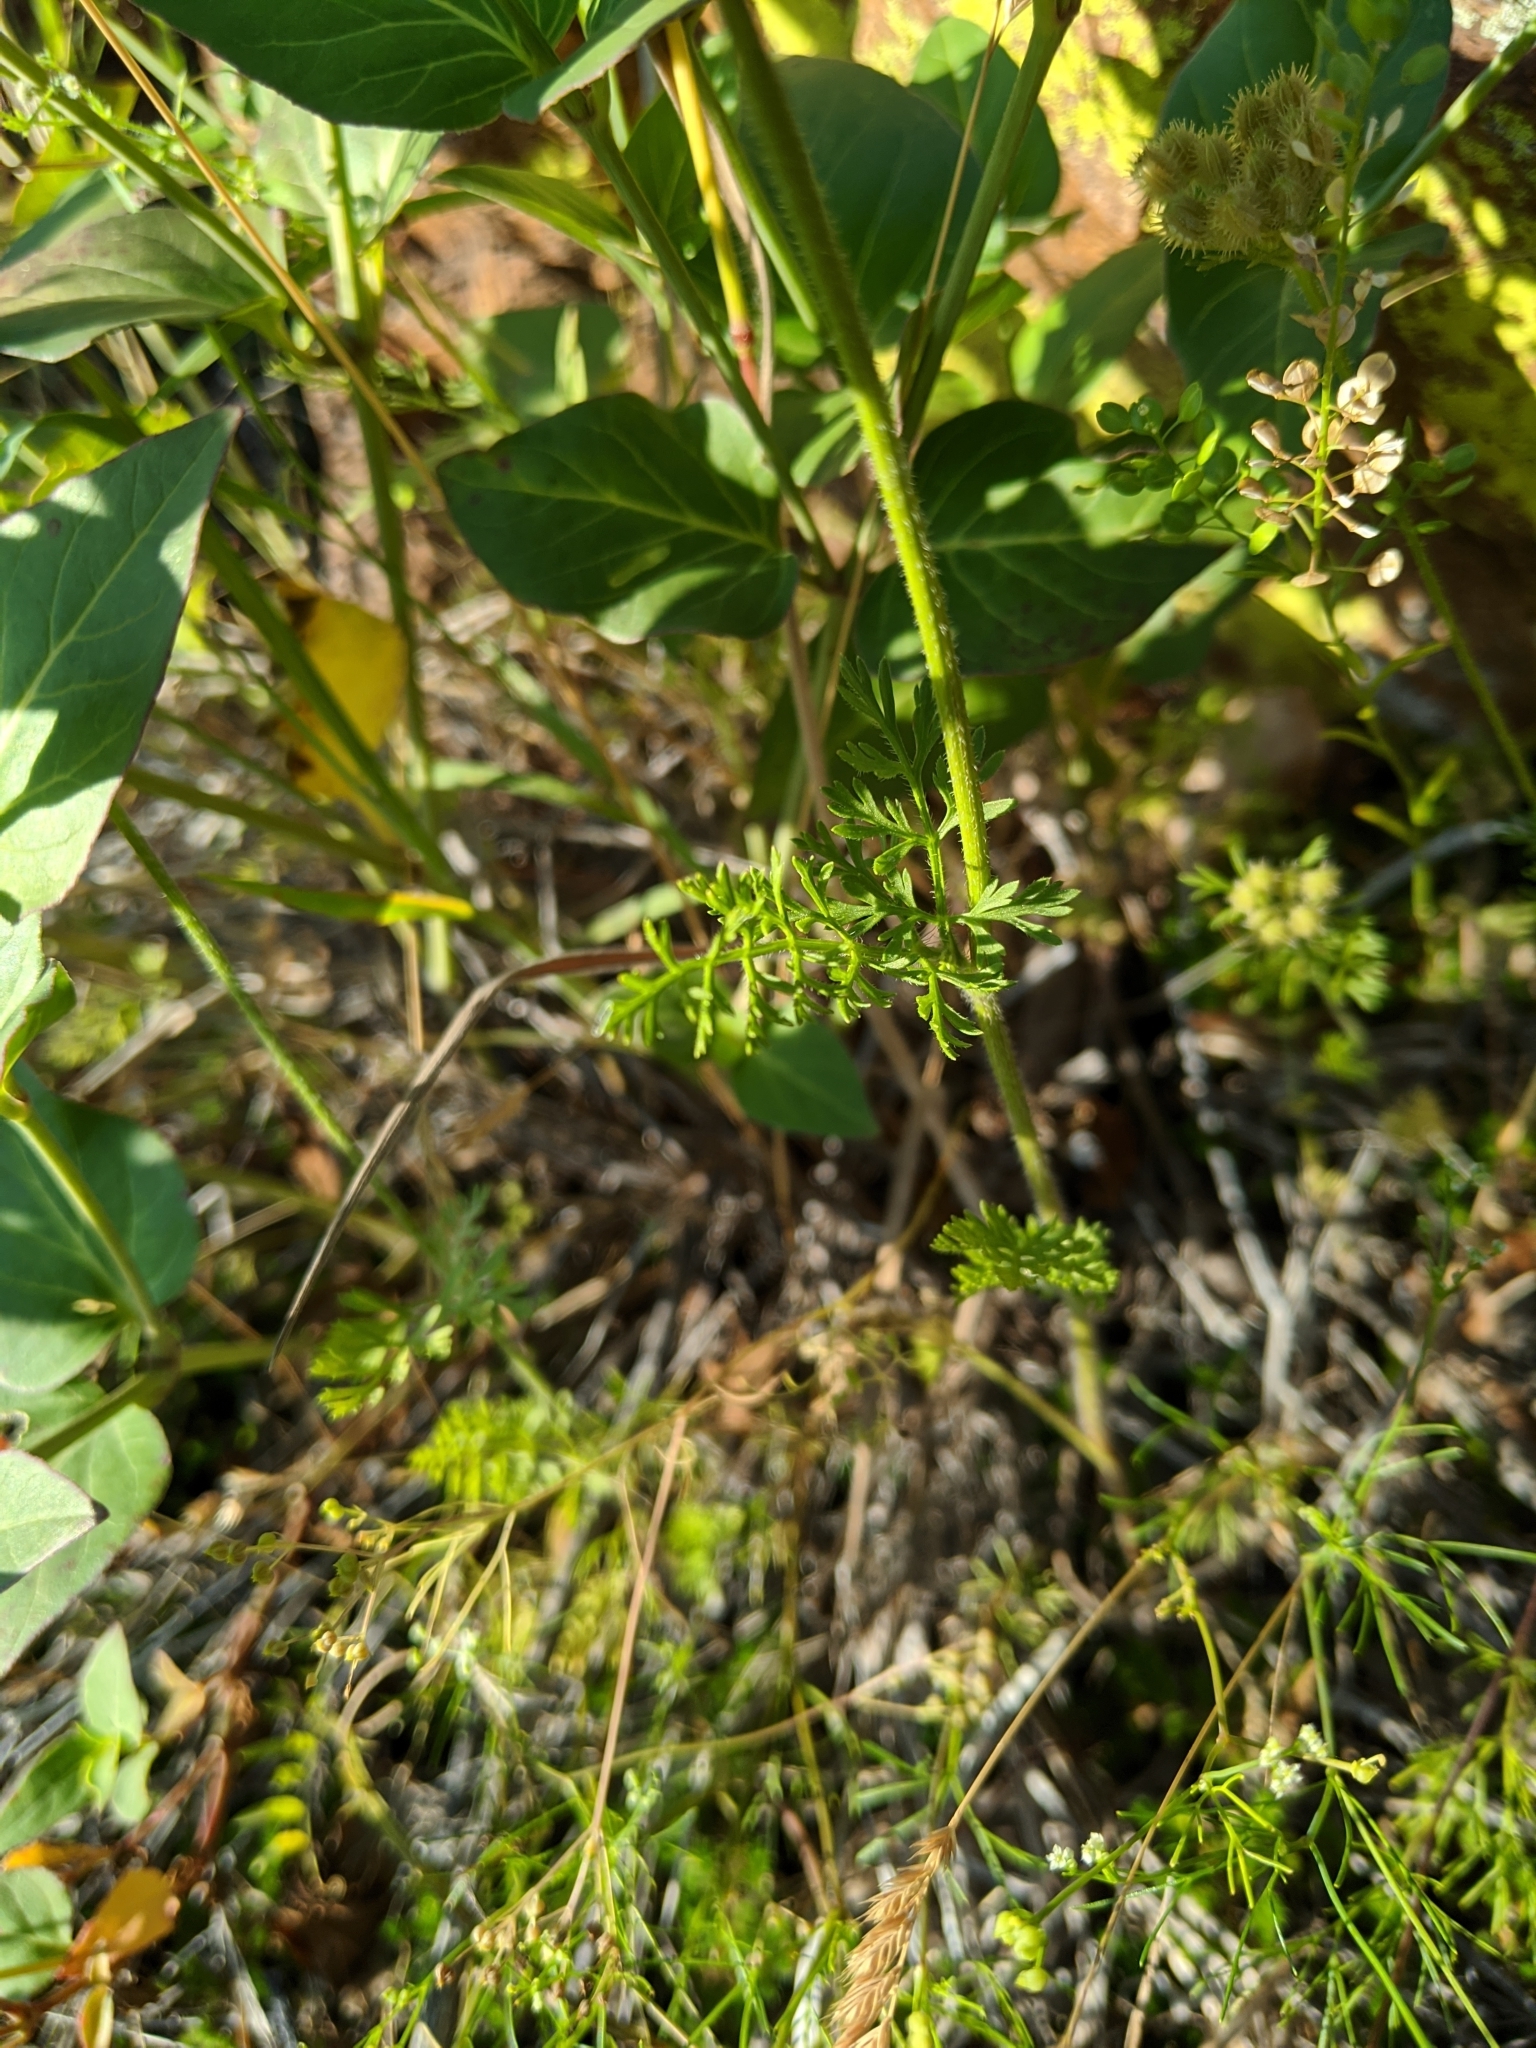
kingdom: Plantae
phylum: Tracheophyta
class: Magnoliopsida
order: Apiales
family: Apiaceae
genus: Daucus
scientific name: Daucus pusillus
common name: Southwest wild carrot
